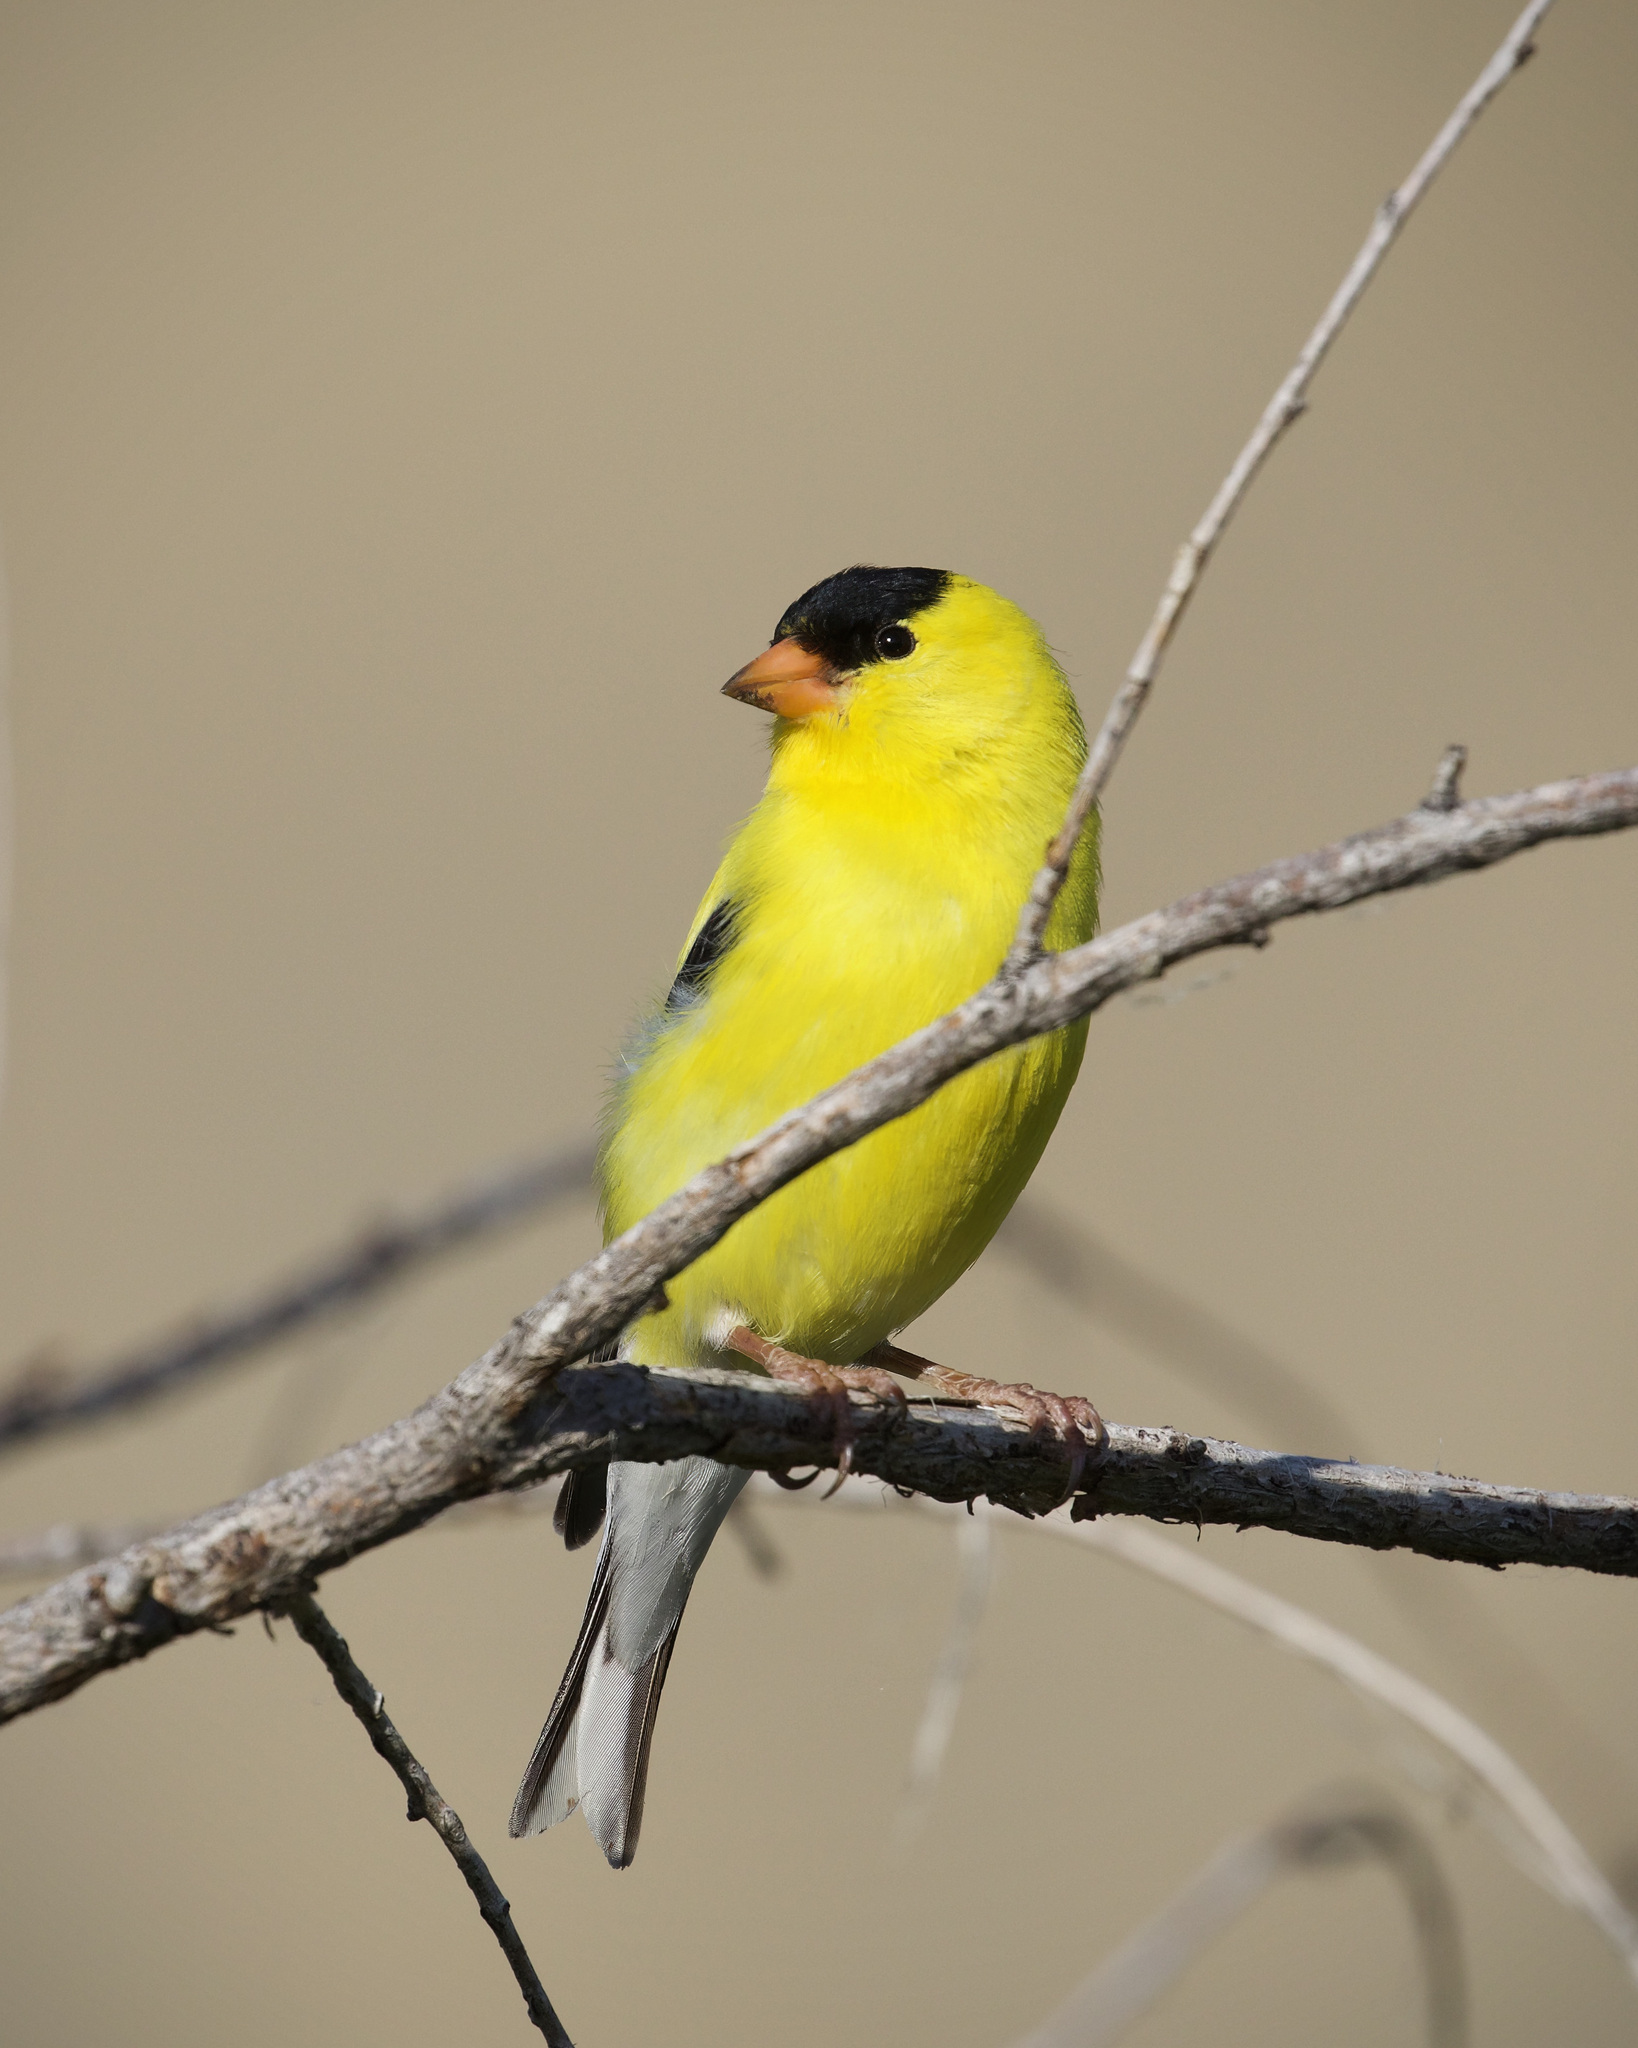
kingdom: Animalia
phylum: Chordata
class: Aves
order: Passeriformes
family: Fringillidae
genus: Spinus
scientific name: Spinus tristis
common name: American goldfinch
